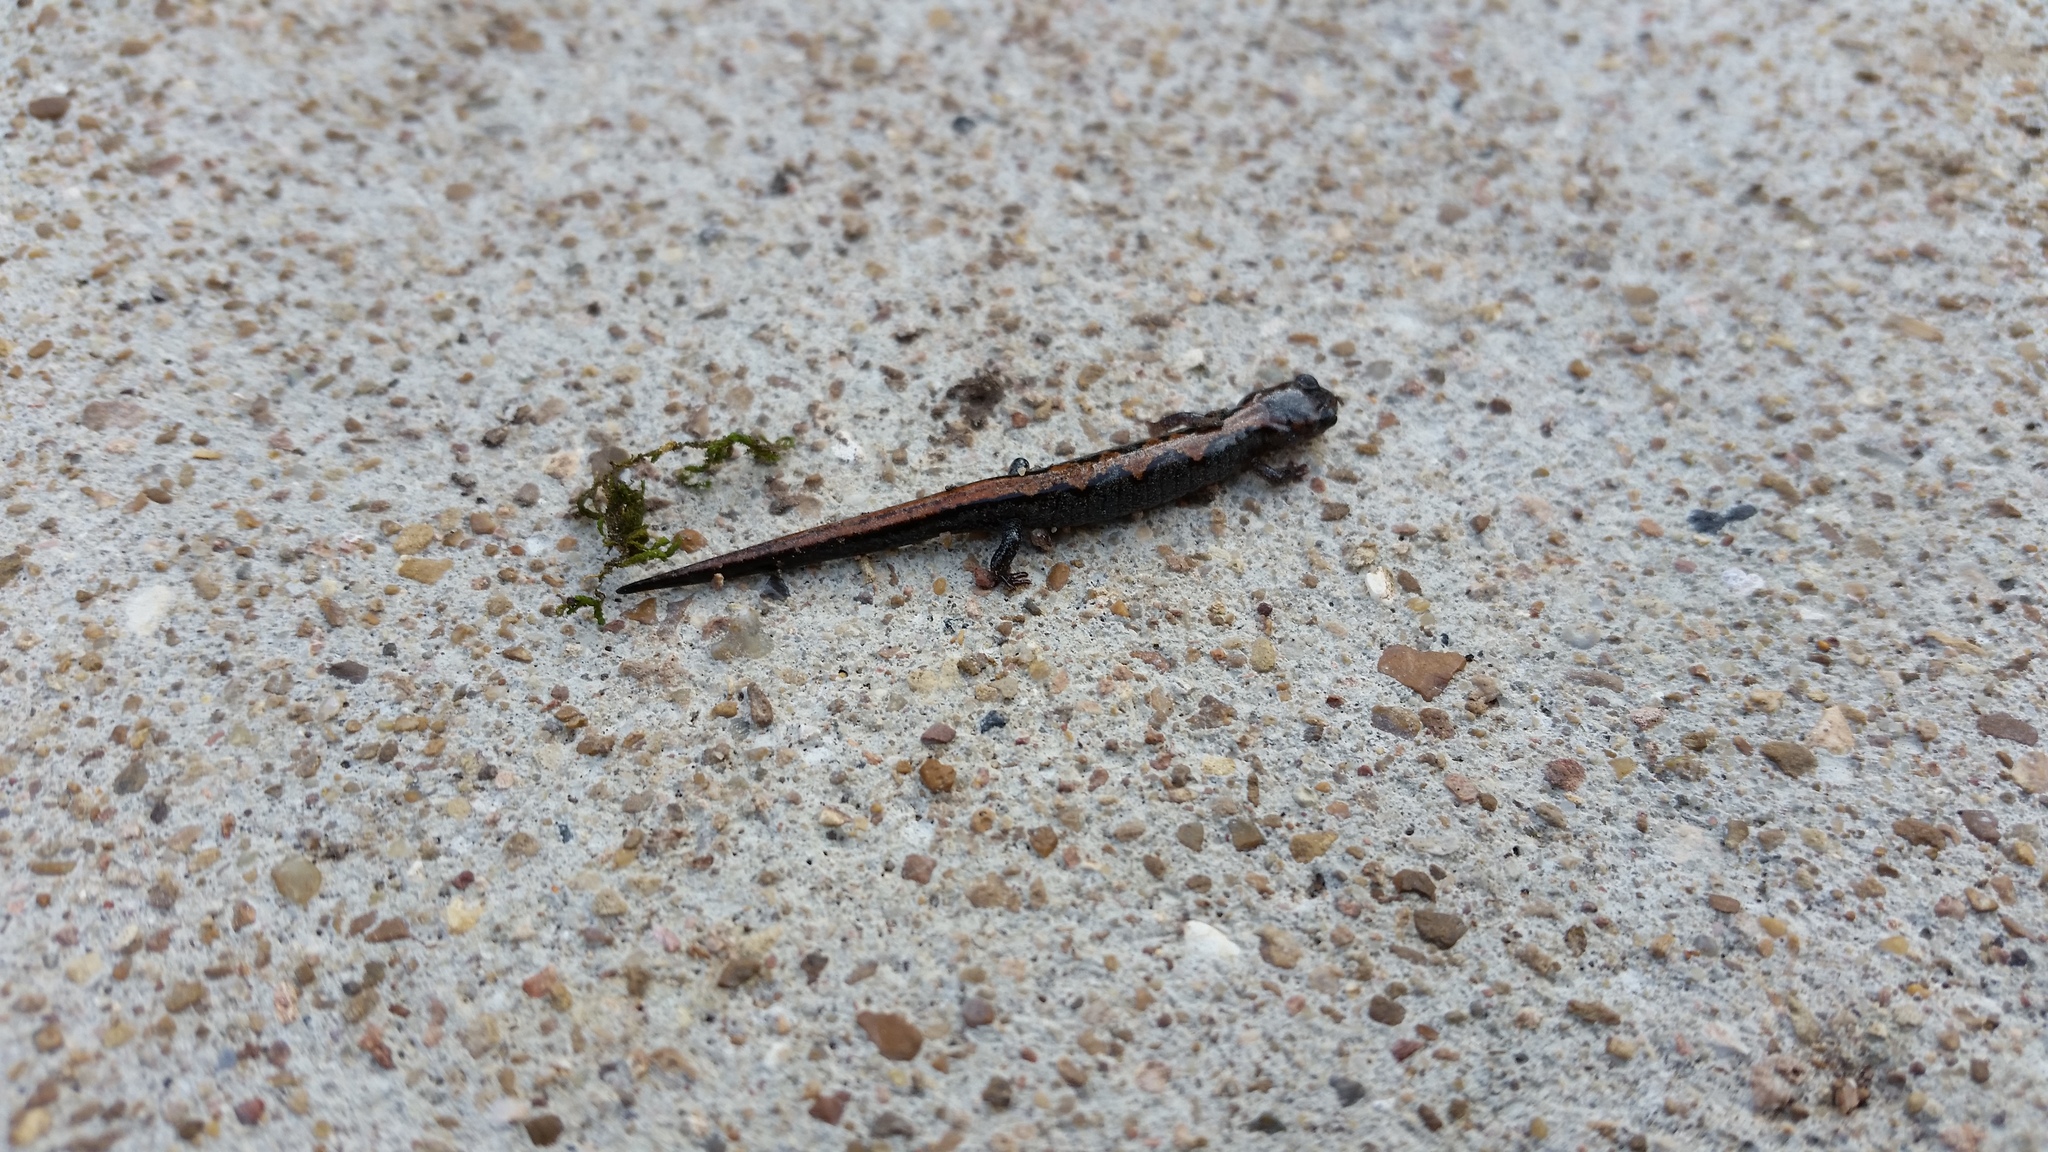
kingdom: Animalia
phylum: Chordata
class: Amphibia
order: Caudata
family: Plethodontidae
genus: Plethodon
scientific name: Plethodon dorsalis
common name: Northern zigzag salamander
